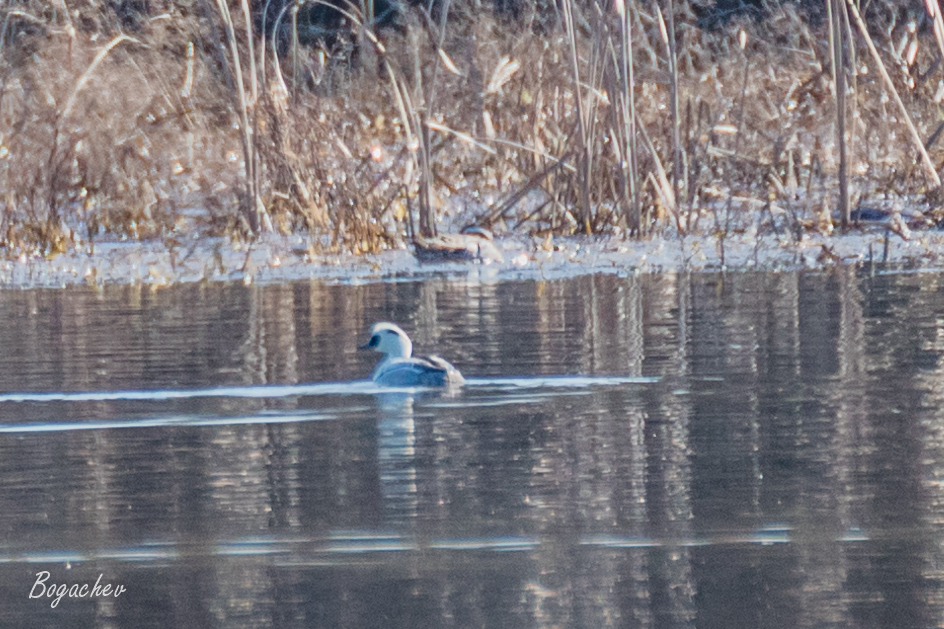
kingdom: Animalia
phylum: Chordata
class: Aves
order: Anseriformes
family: Anatidae
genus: Mergellus
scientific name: Mergellus albellus
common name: Smew
